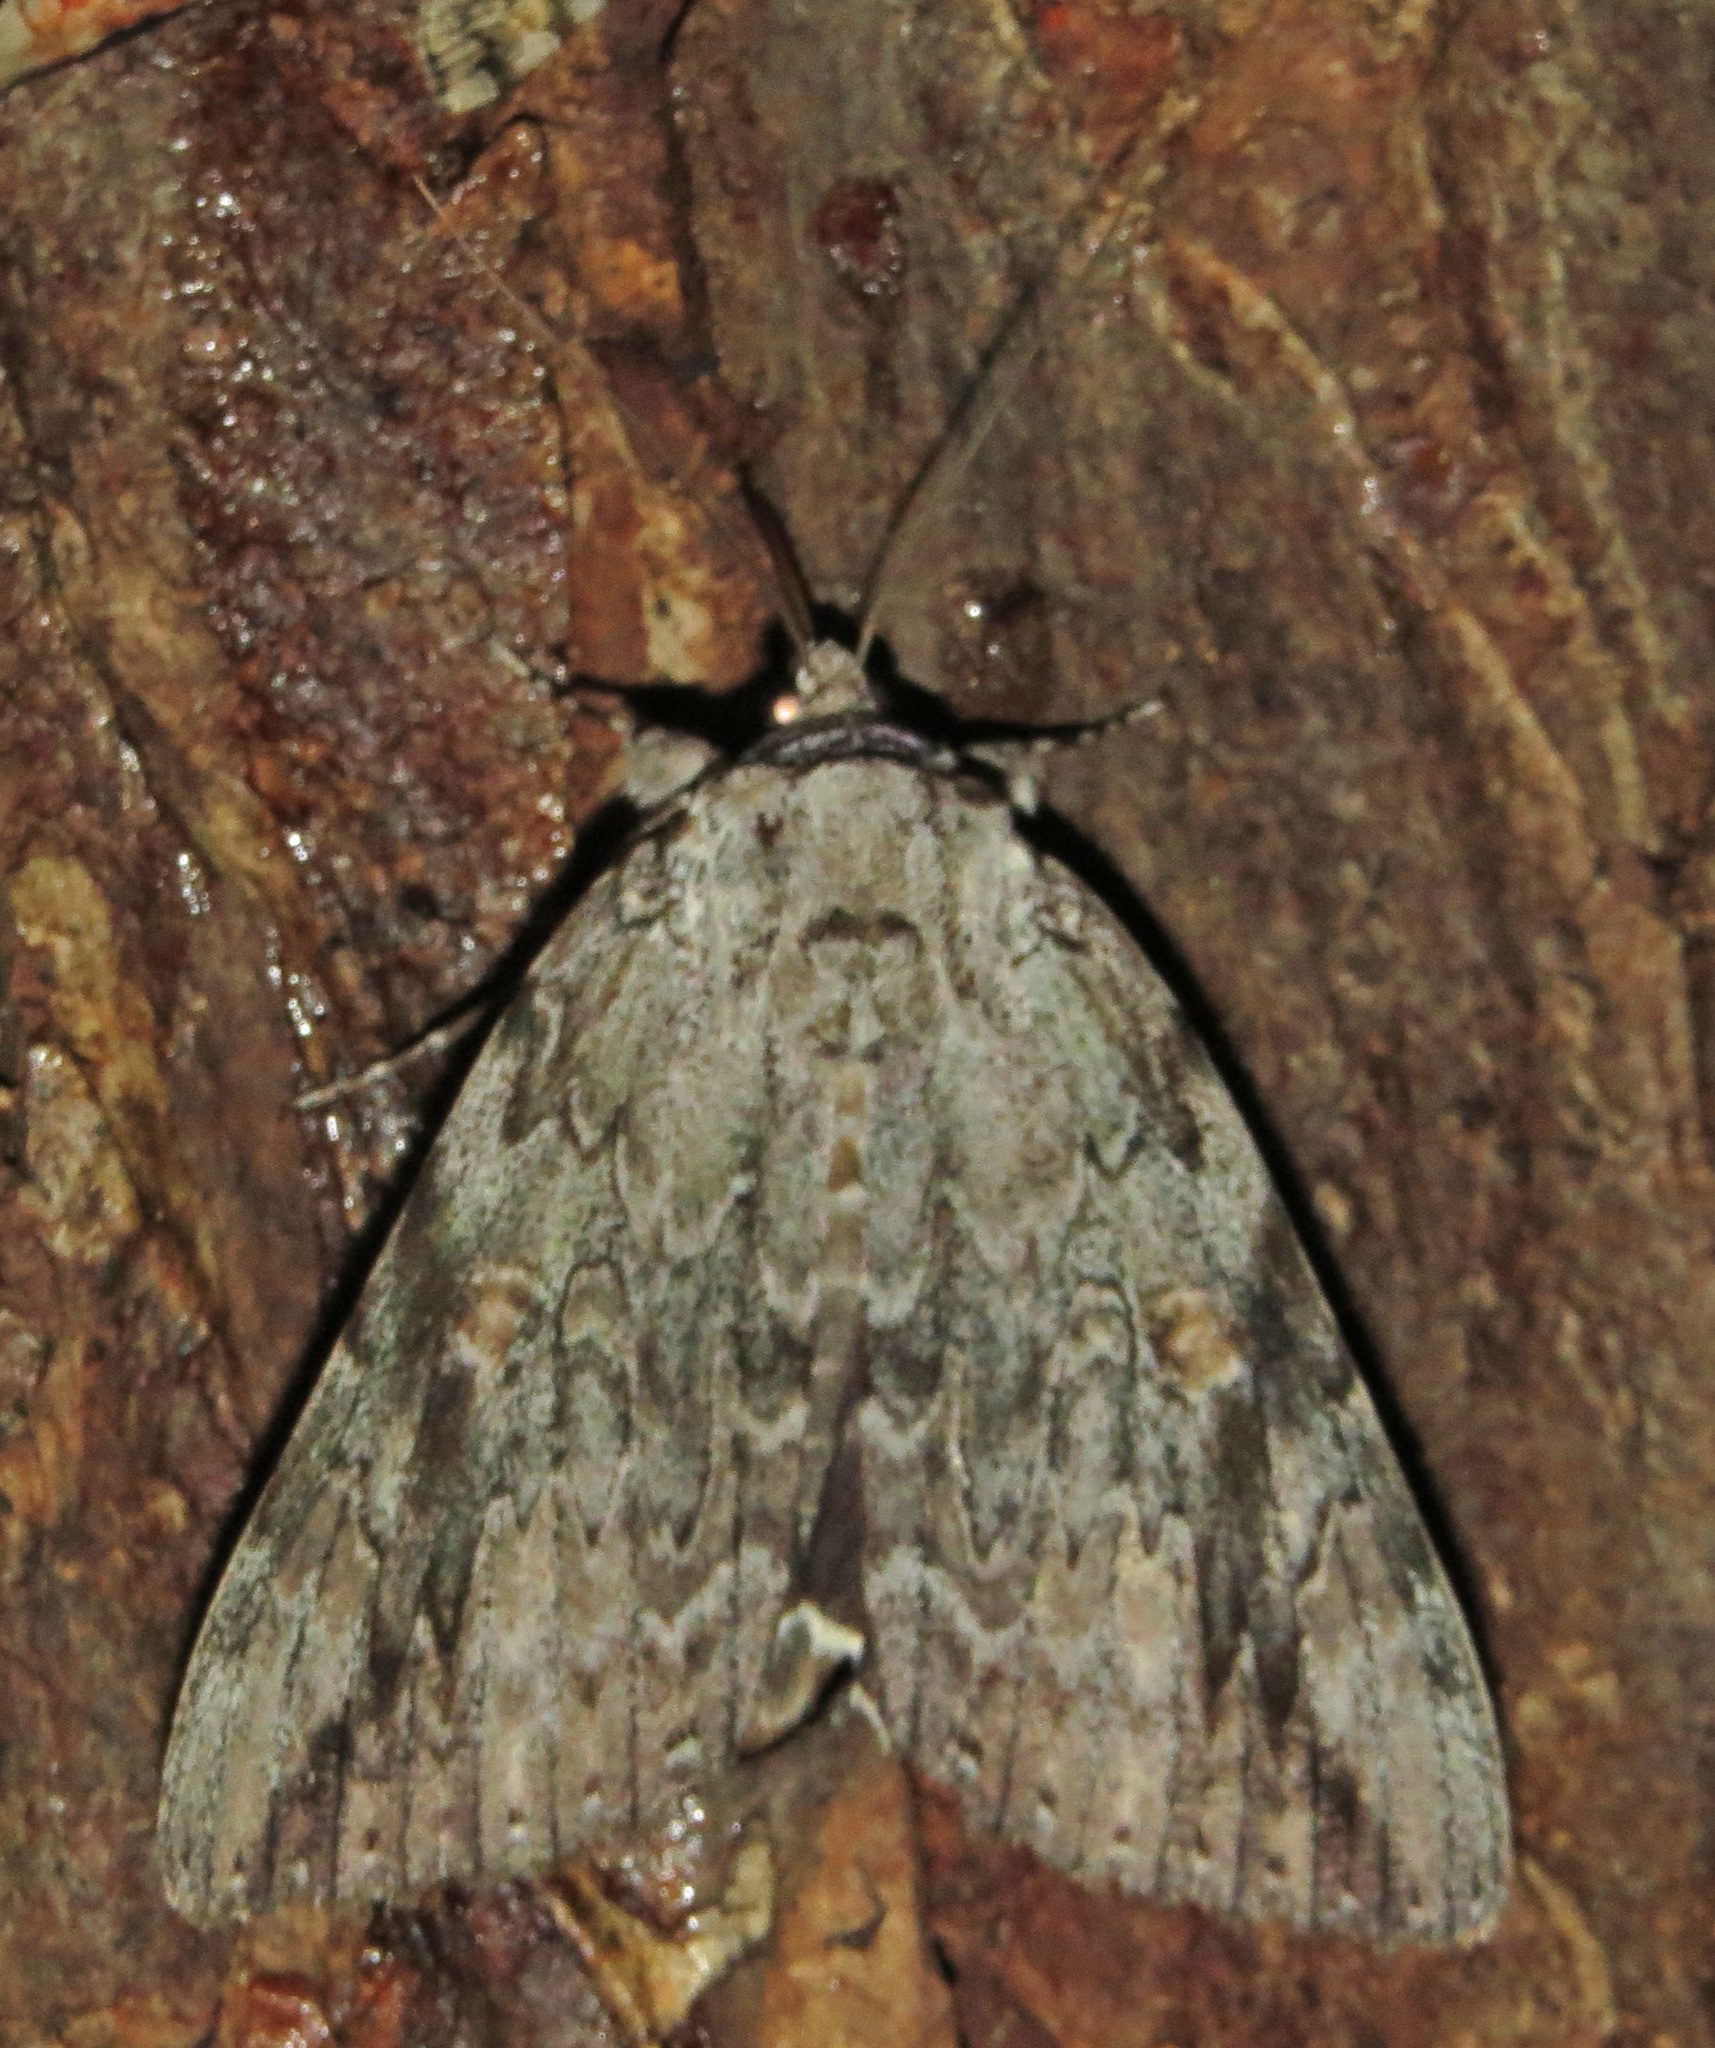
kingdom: Animalia
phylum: Arthropoda
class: Insecta
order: Lepidoptera
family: Erebidae
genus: Catocala
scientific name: Catocala maestosa
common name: Sad underwing
